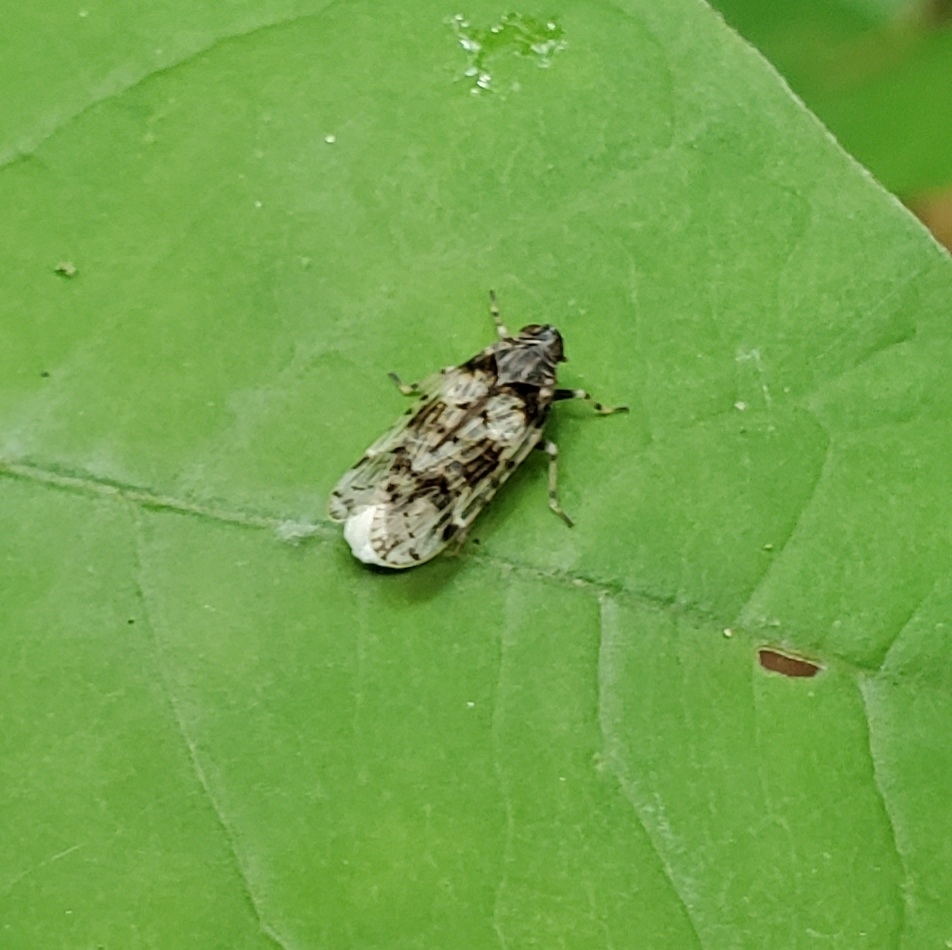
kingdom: Animalia
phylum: Arthropoda
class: Insecta
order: Hemiptera
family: Cixiidae
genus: Melanoliarus
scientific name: Melanoliarus placitus
